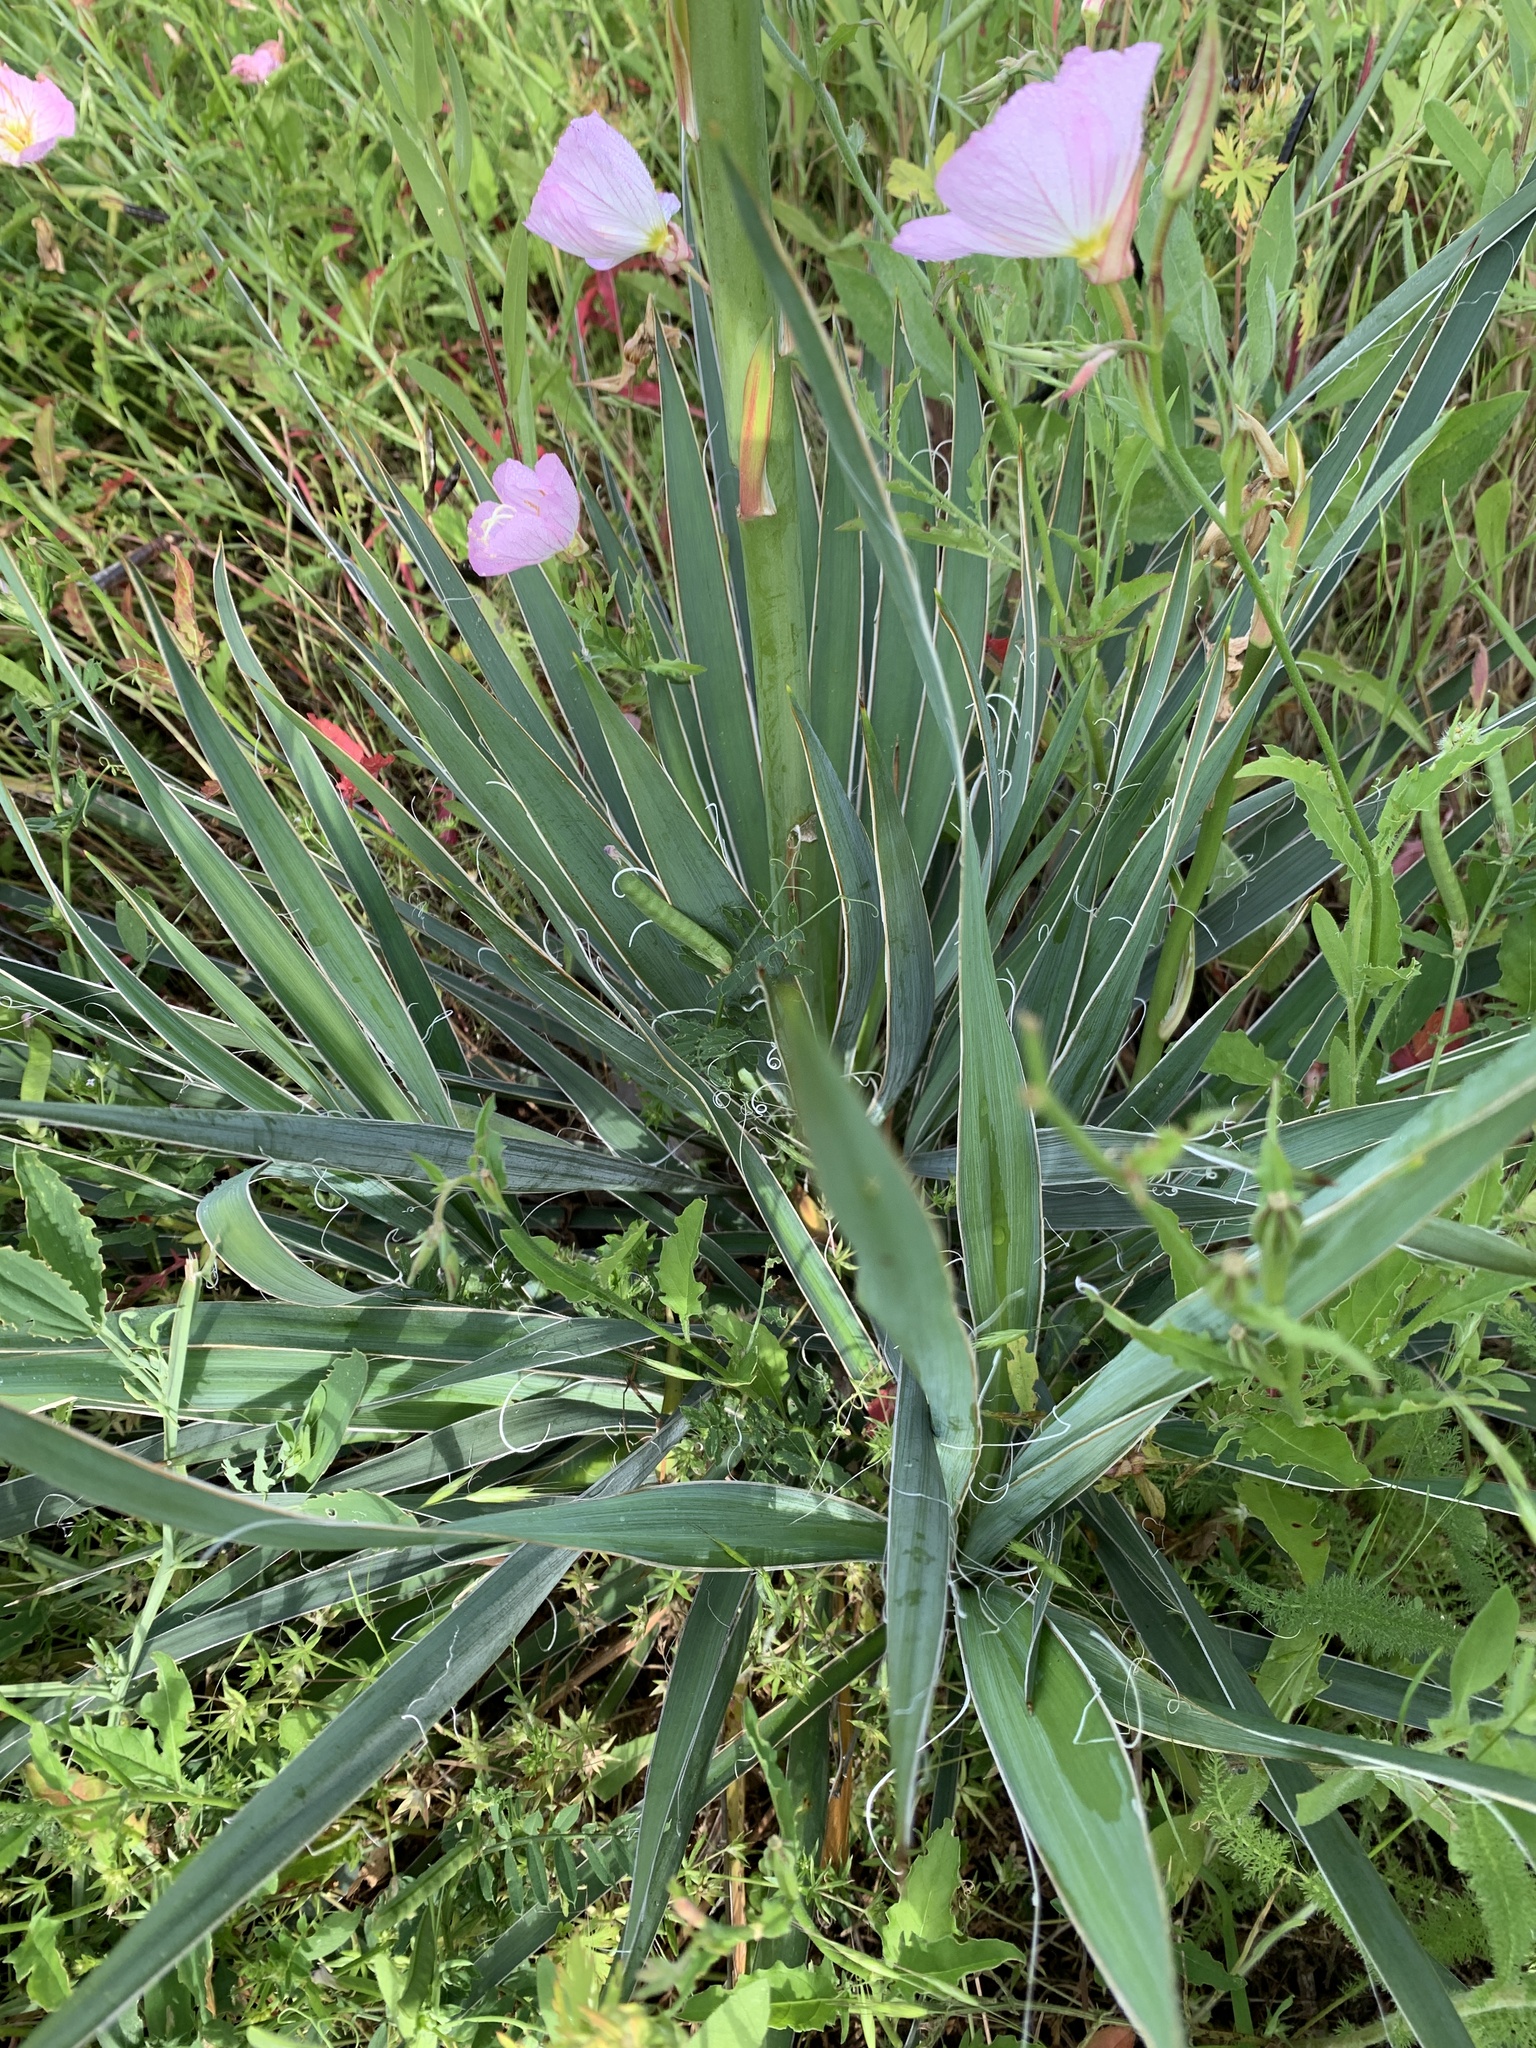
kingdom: Plantae
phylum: Tracheophyta
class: Liliopsida
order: Asparagales
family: Asparagaceae
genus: Yucca
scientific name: Yucca arkansana
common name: Arkansas yucca
